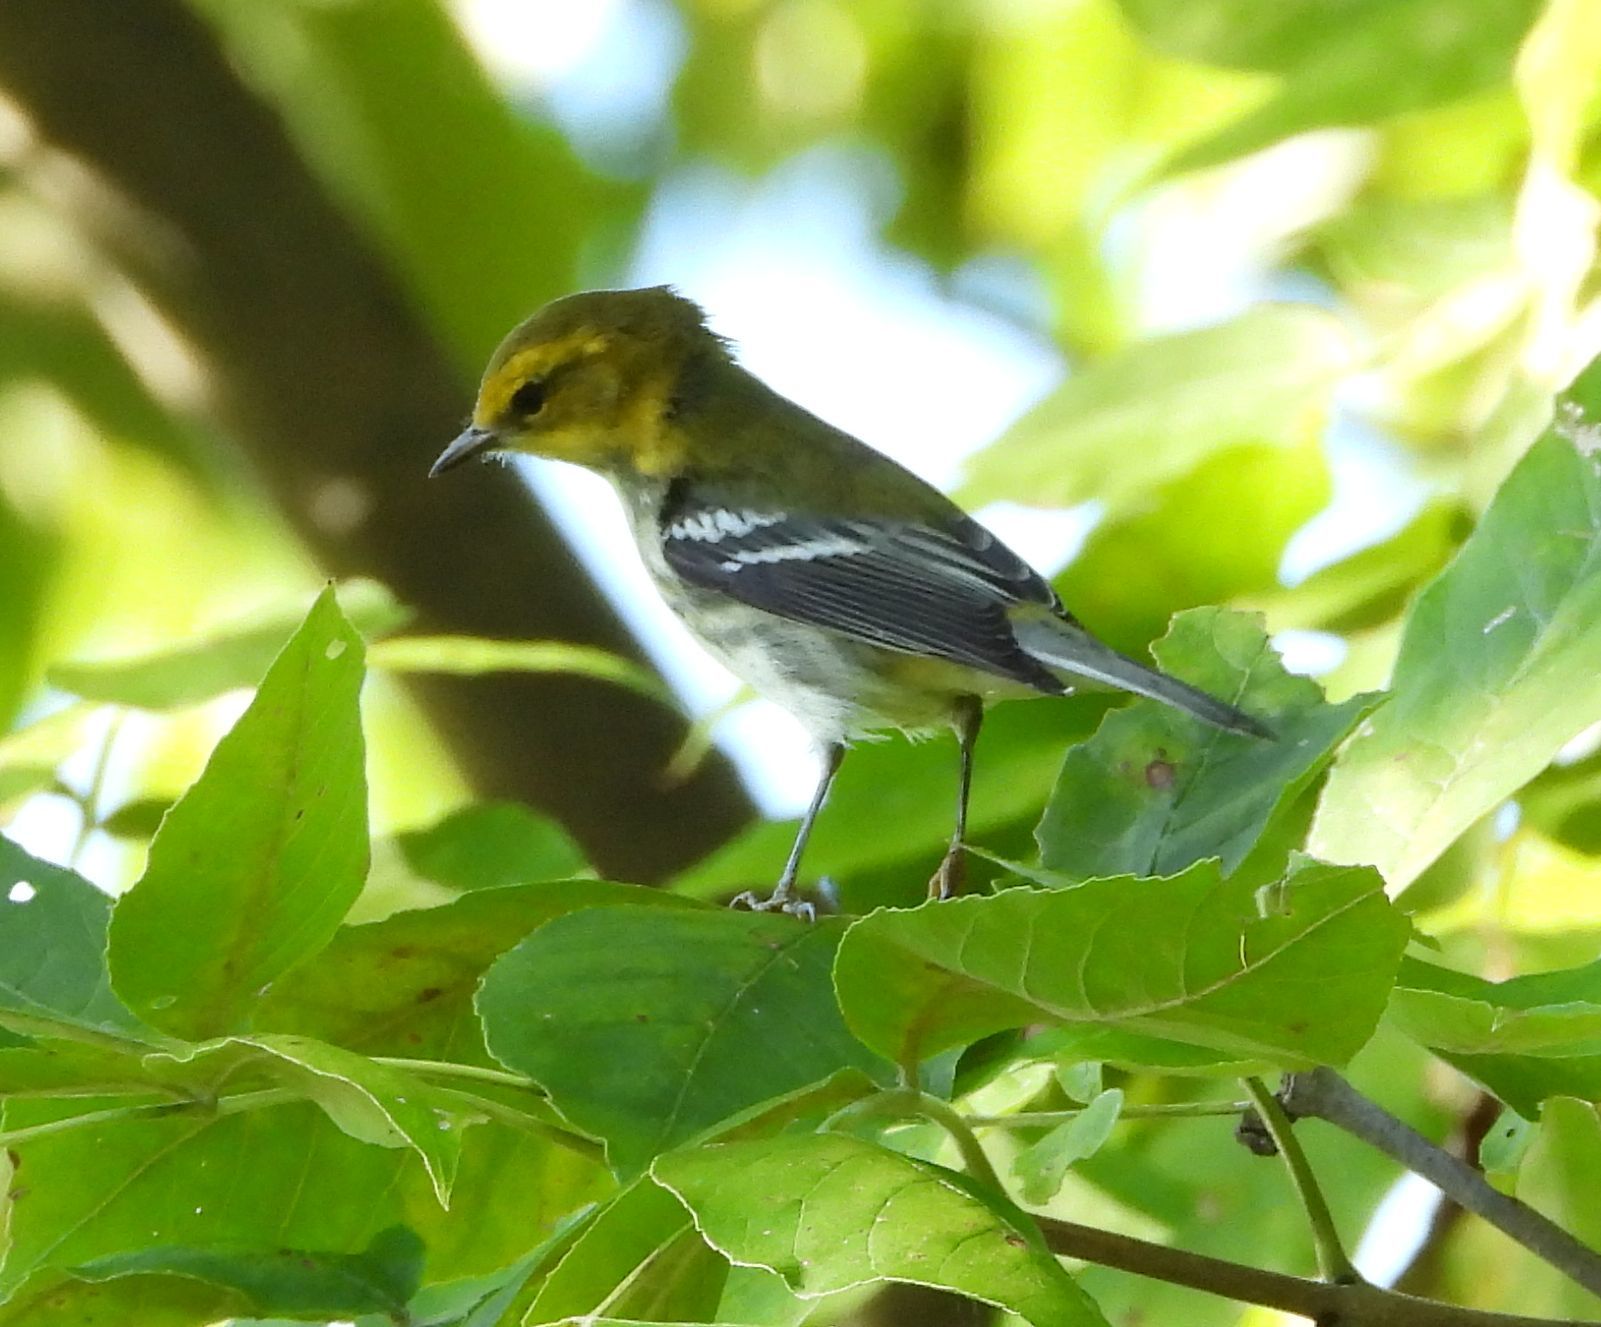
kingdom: Animalia
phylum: Chordata
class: Aves
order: Passeriformes
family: Parulidae
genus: Setophaga
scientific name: Setophaga virens
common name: Black-throated green warbler
